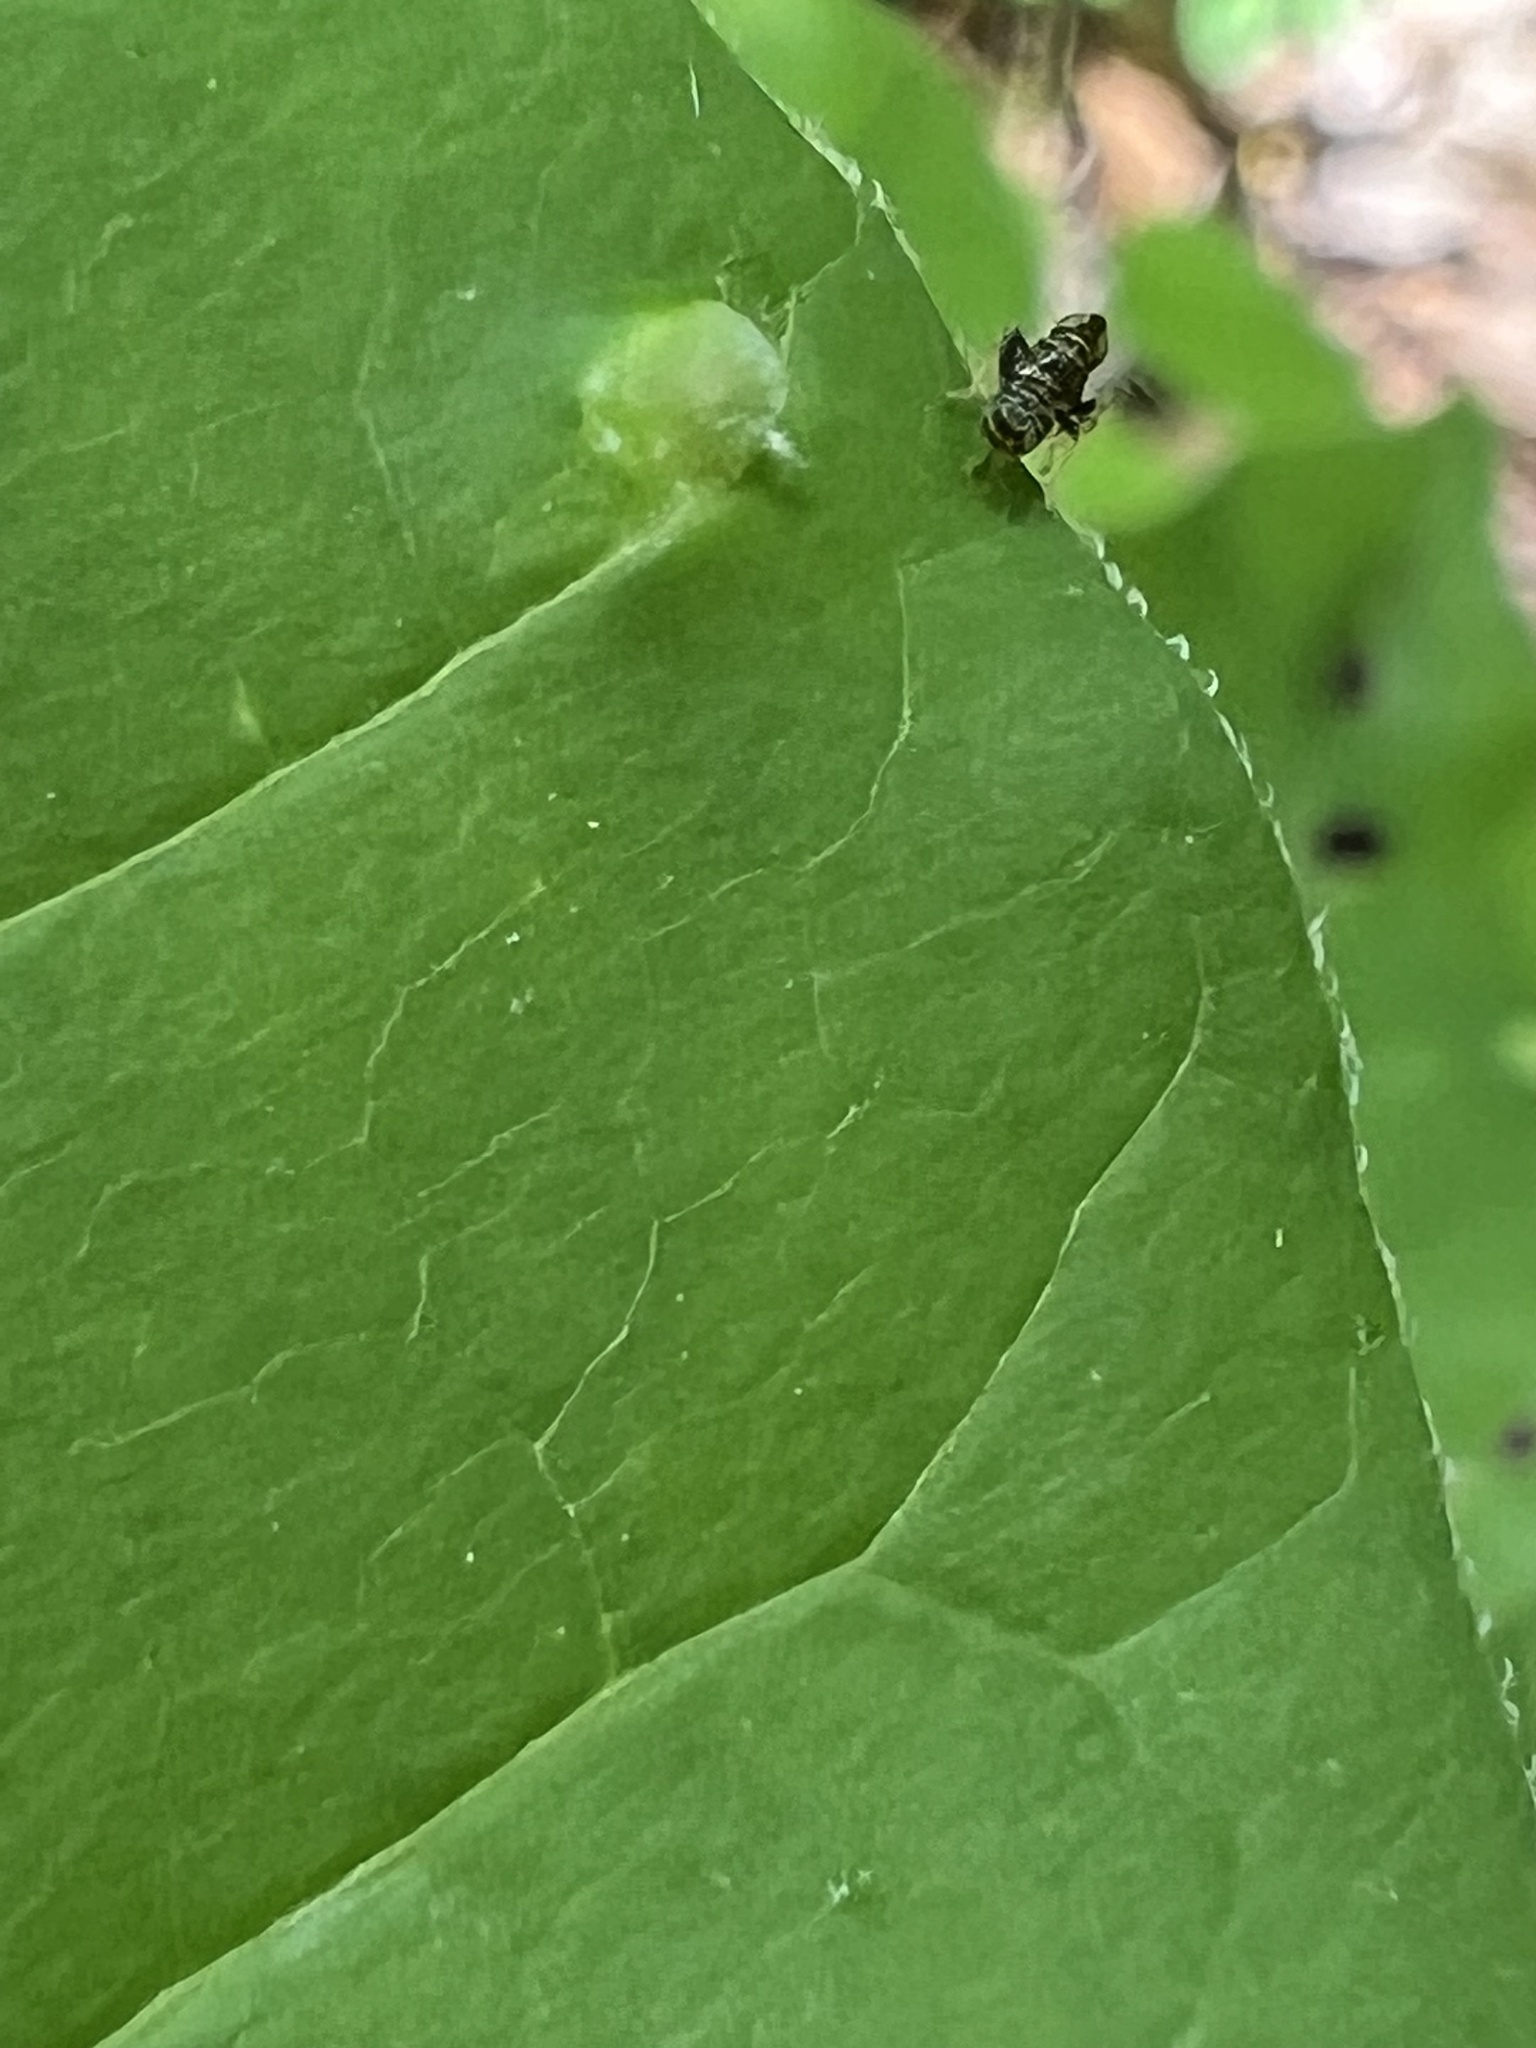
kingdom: Animalia
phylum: Arthropoda
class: Insecta
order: Hemiptera
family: Cicadellidae
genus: Jikradia
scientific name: Jikradia olitoria
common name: Coppery leafhopper
